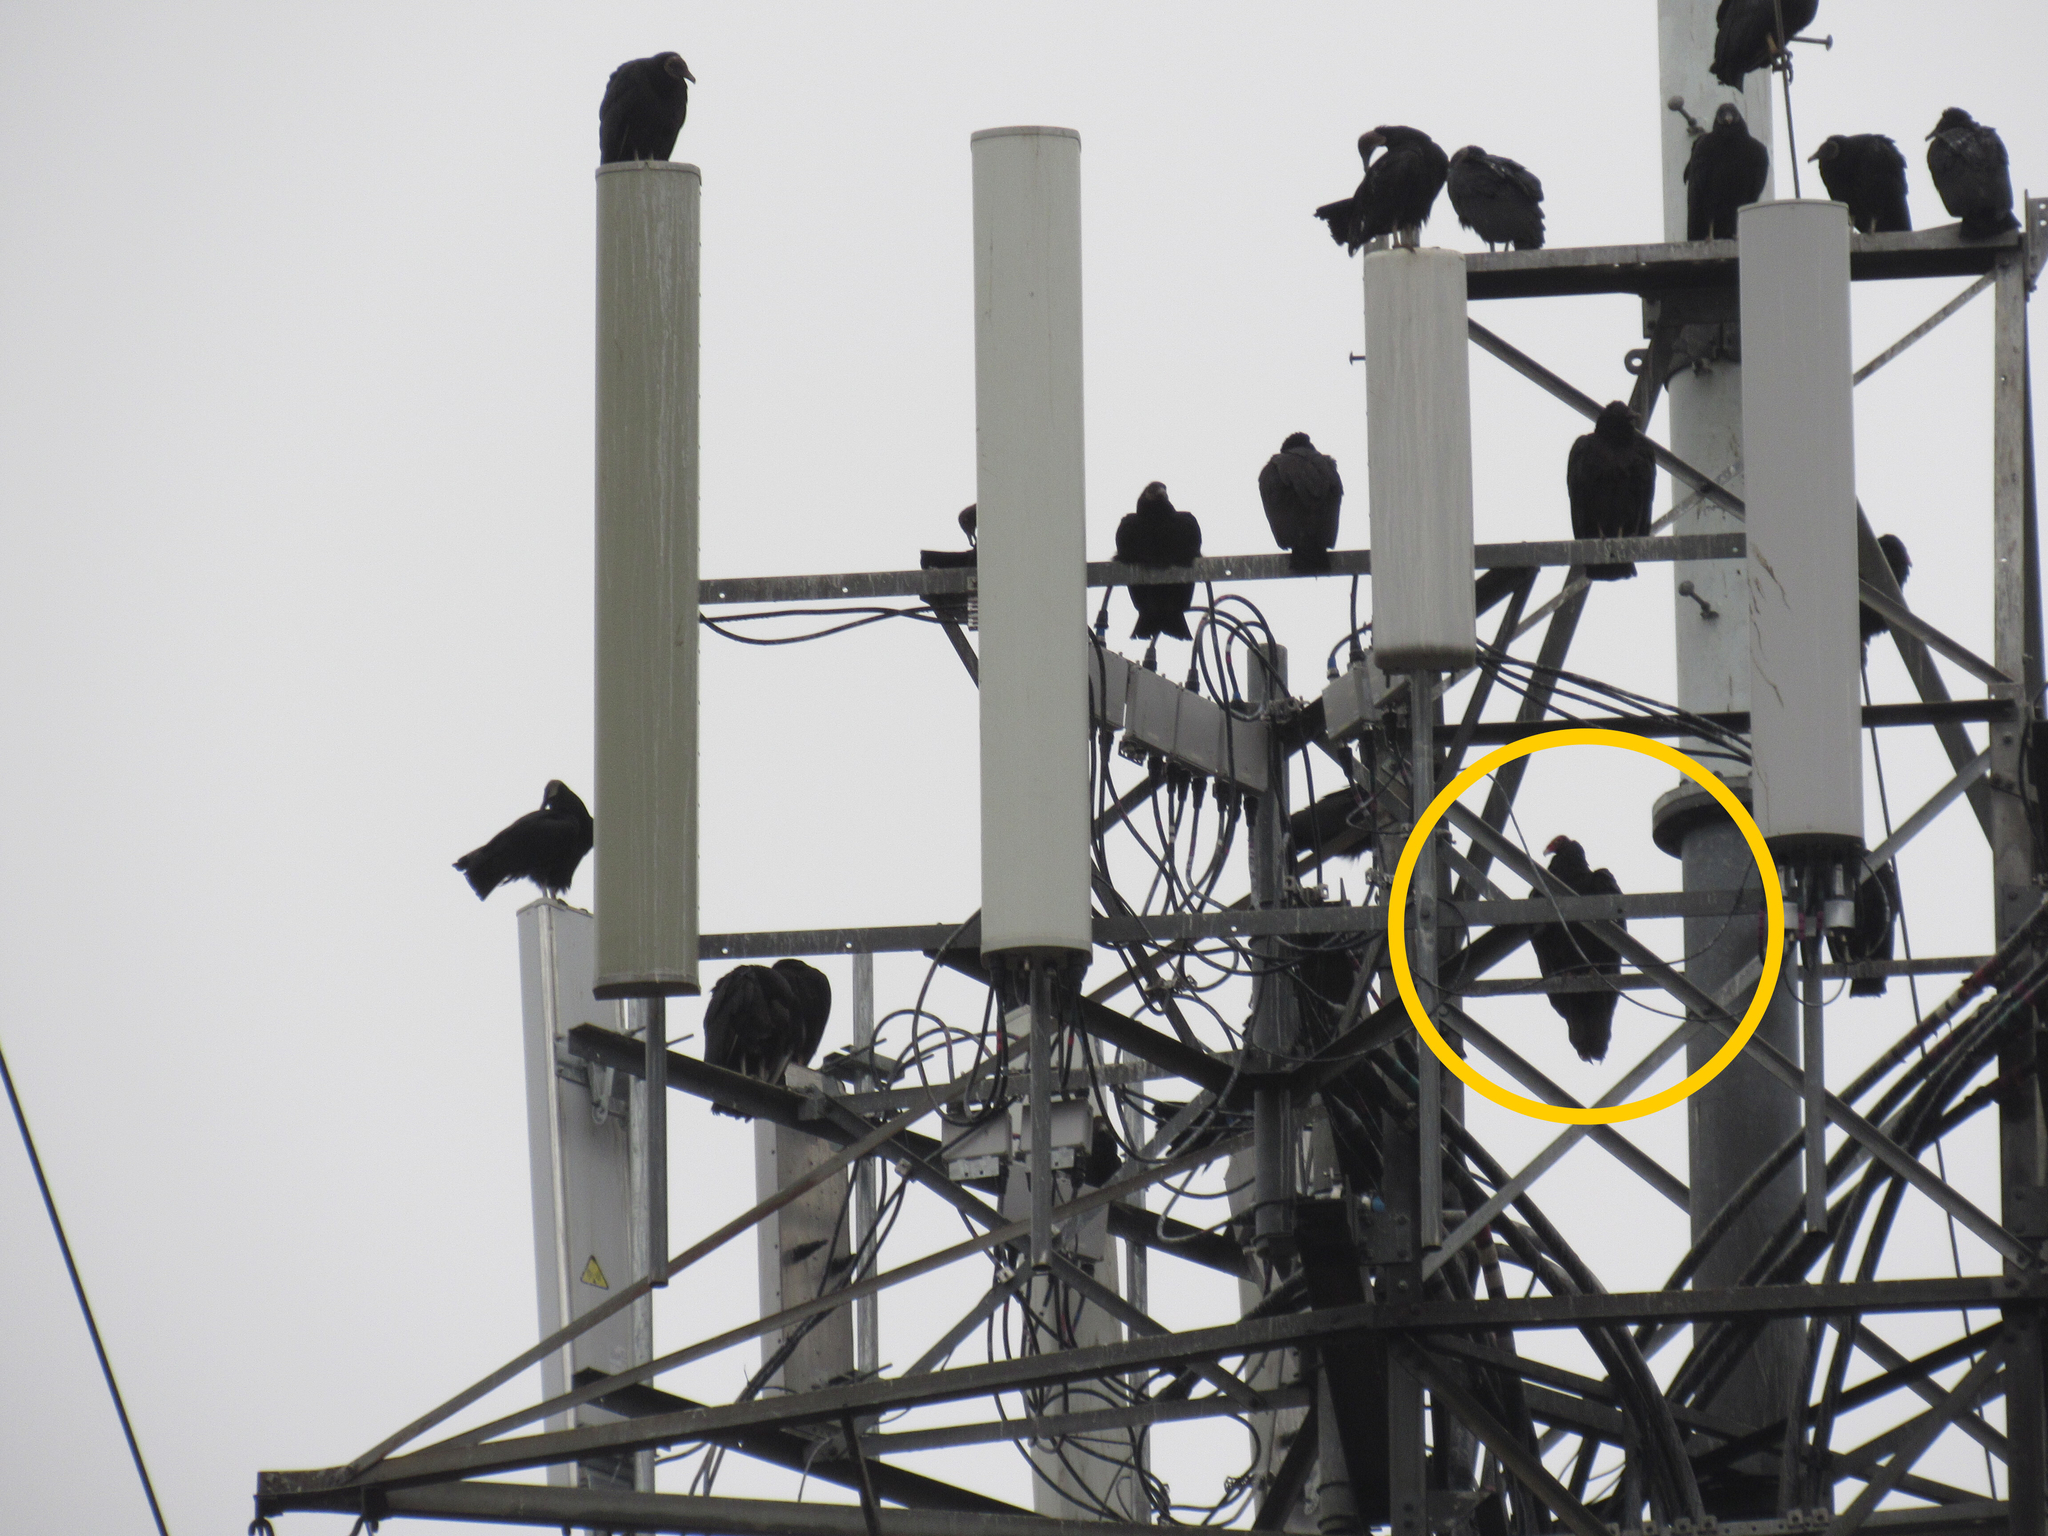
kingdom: Animalia
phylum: Chordata
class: Aves
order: Accipitriformes
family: Cathartidae
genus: Cathartes
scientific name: Cathartes aura
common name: Turkey vulture
